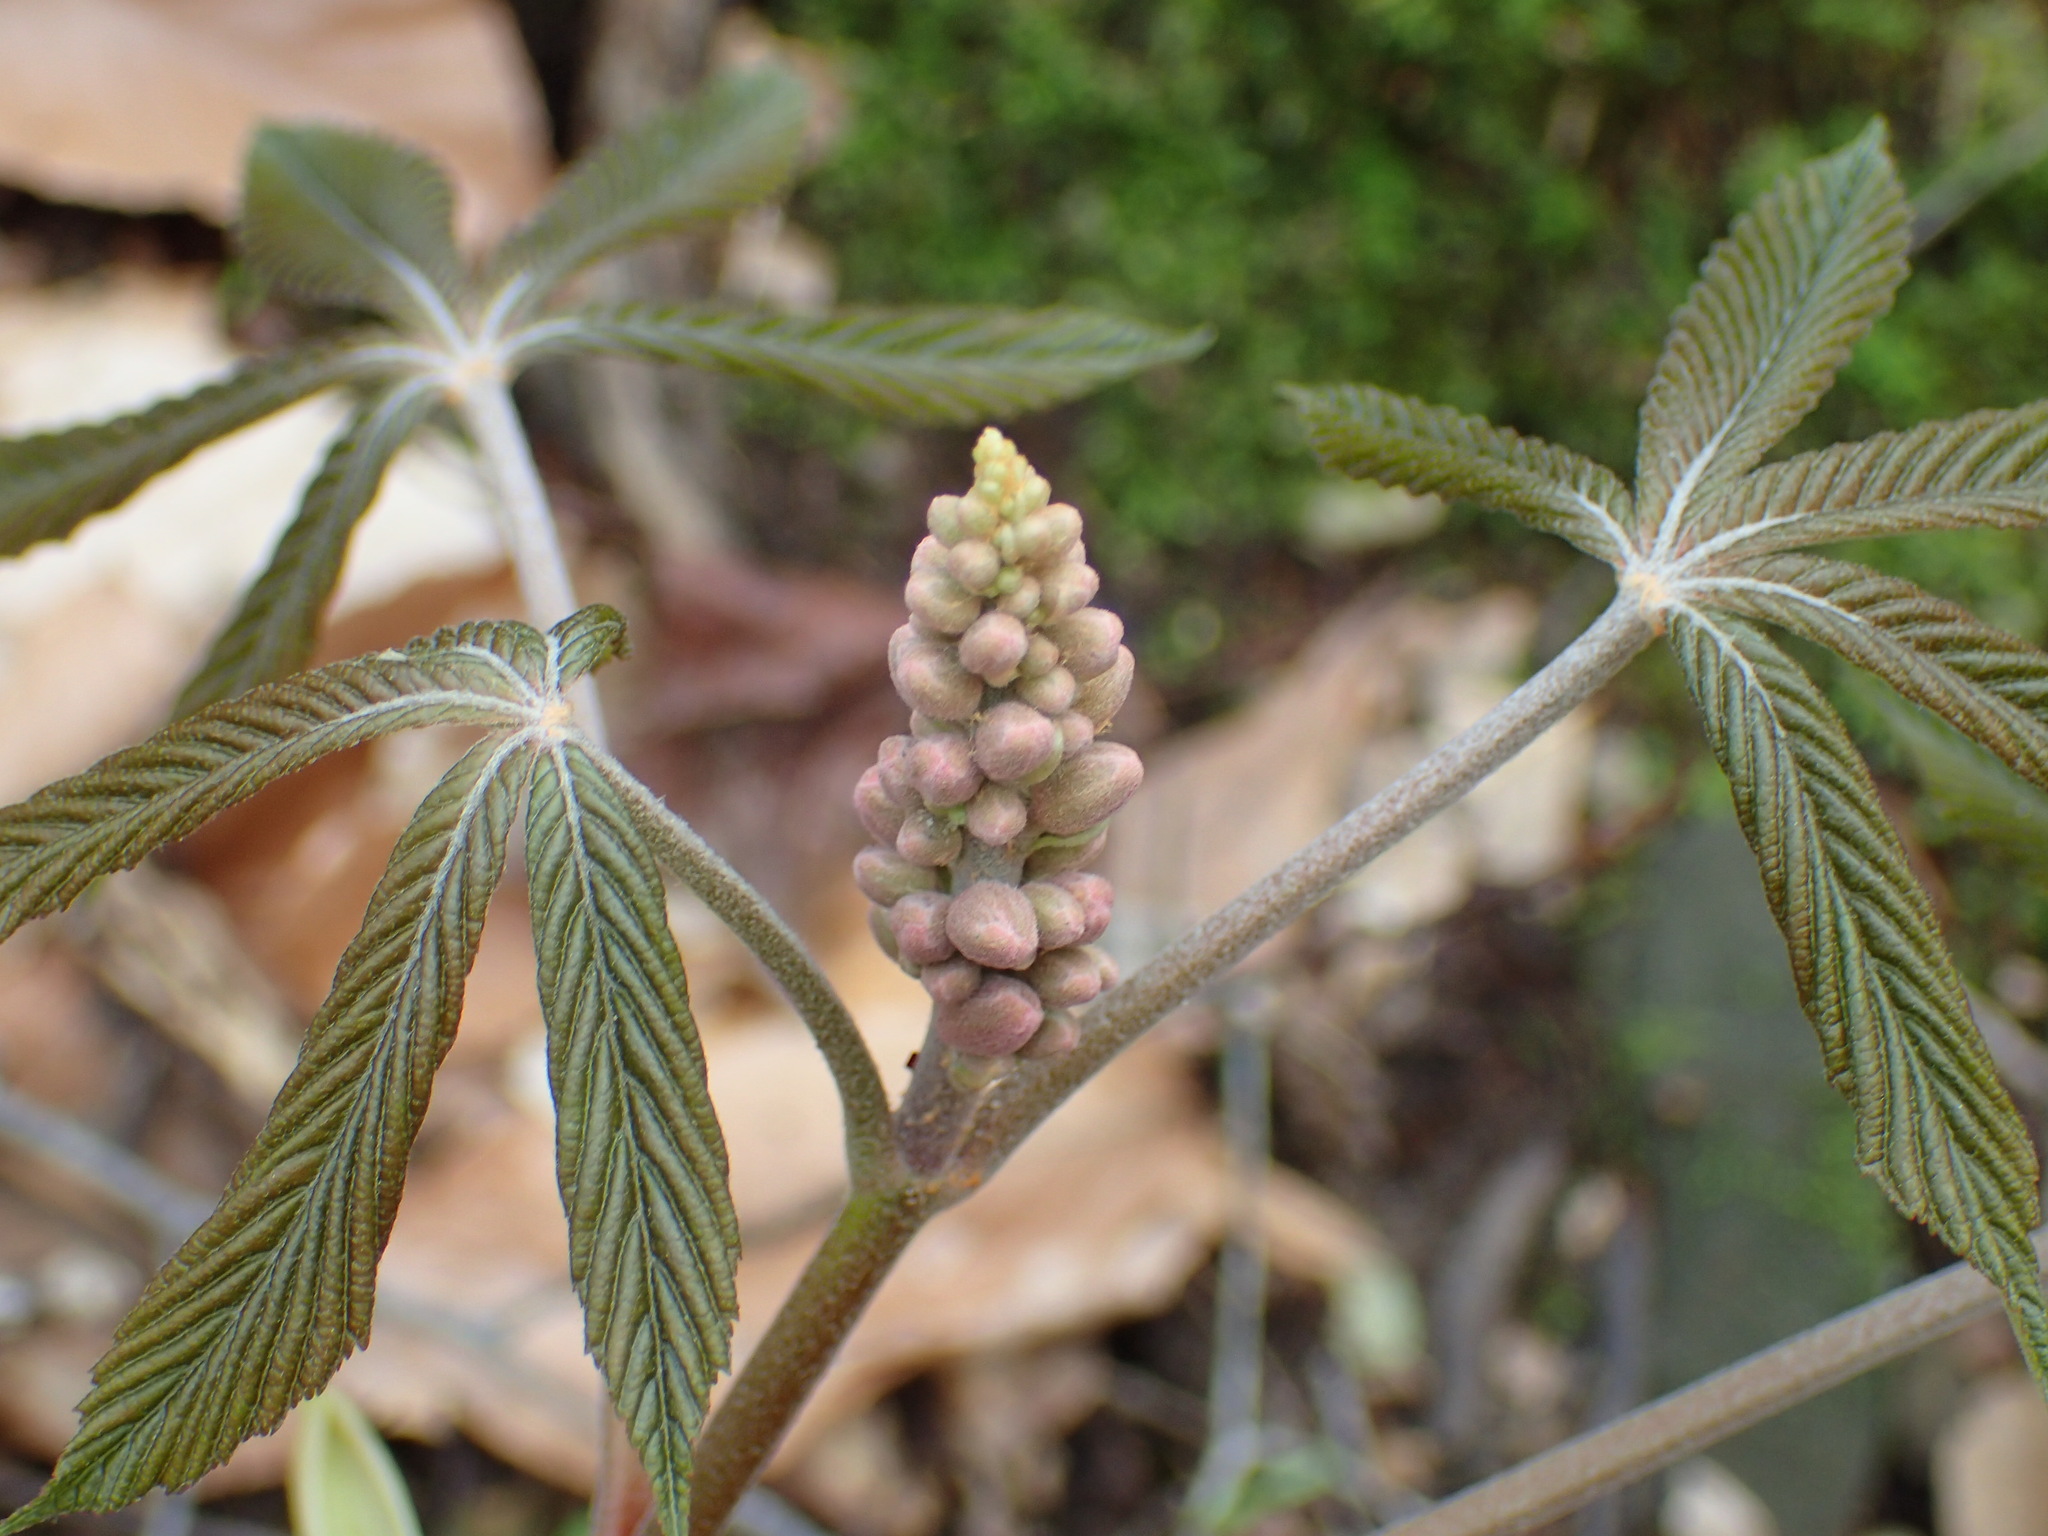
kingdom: Plantae
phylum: Tracheophyta
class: Magnoliopsida
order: Sapindales
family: Sapindaceae
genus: Aesculus
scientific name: Aesculus pavia
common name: Red buckeye
